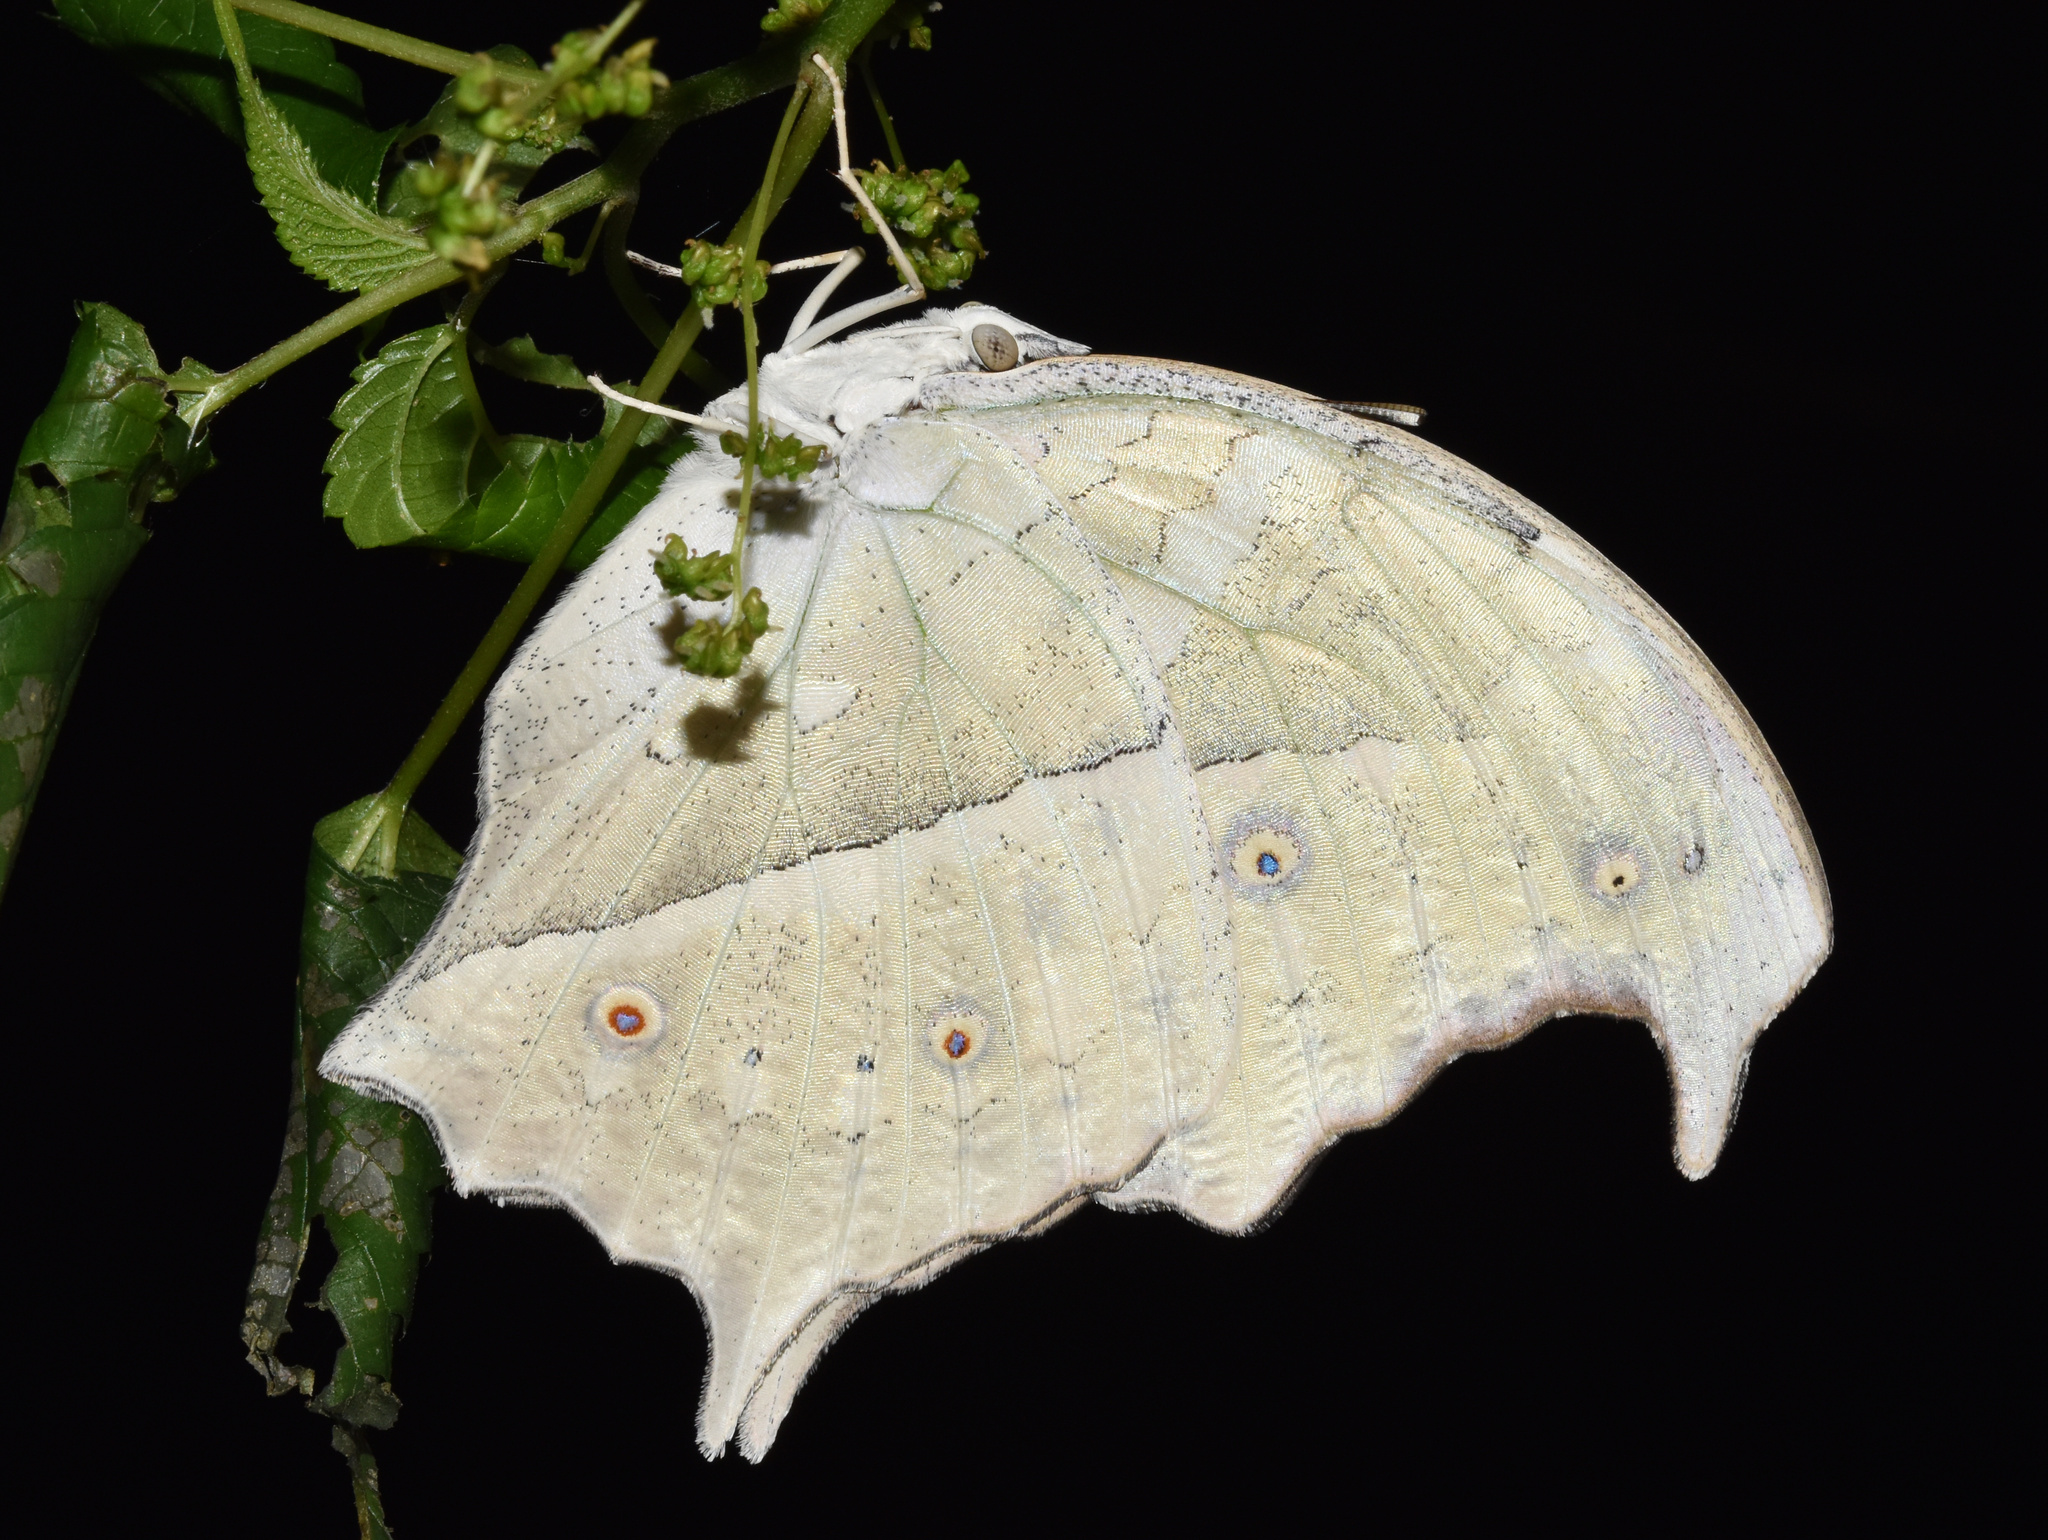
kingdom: Animalia
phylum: Arthropoda
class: Insecta
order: Lepidoptera
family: Nymphalidae
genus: Salamis
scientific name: Salamis Protogoniomorpha parhassus
